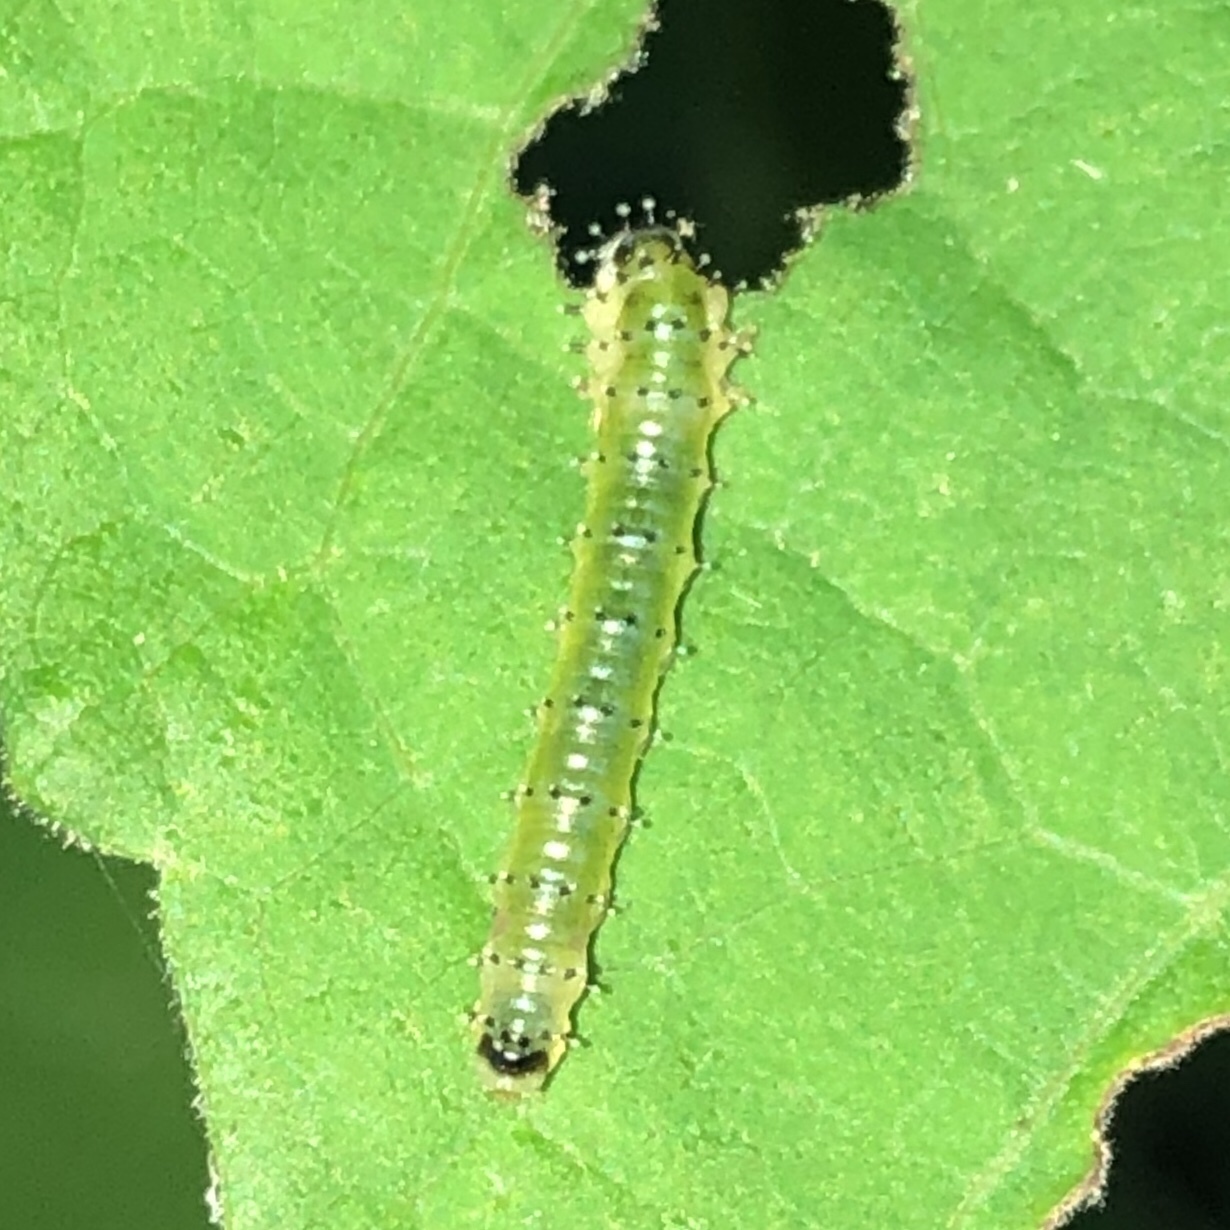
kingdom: Animalia
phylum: Arthropoda
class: Insecta
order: Hymenoptera
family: Argidae
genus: Atomacera
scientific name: Atomacera
